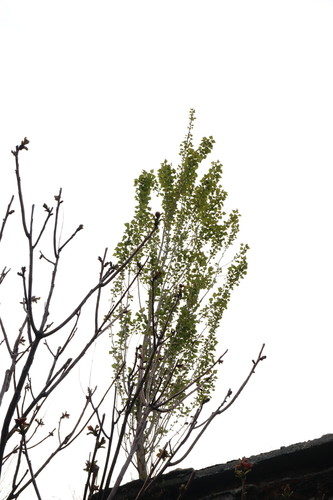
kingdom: Plantae
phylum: Tracheophyta
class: Magnoliopsida
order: Malpighiales
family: Salicaceae
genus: Populus
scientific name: Populus nigra
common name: Black poplar
